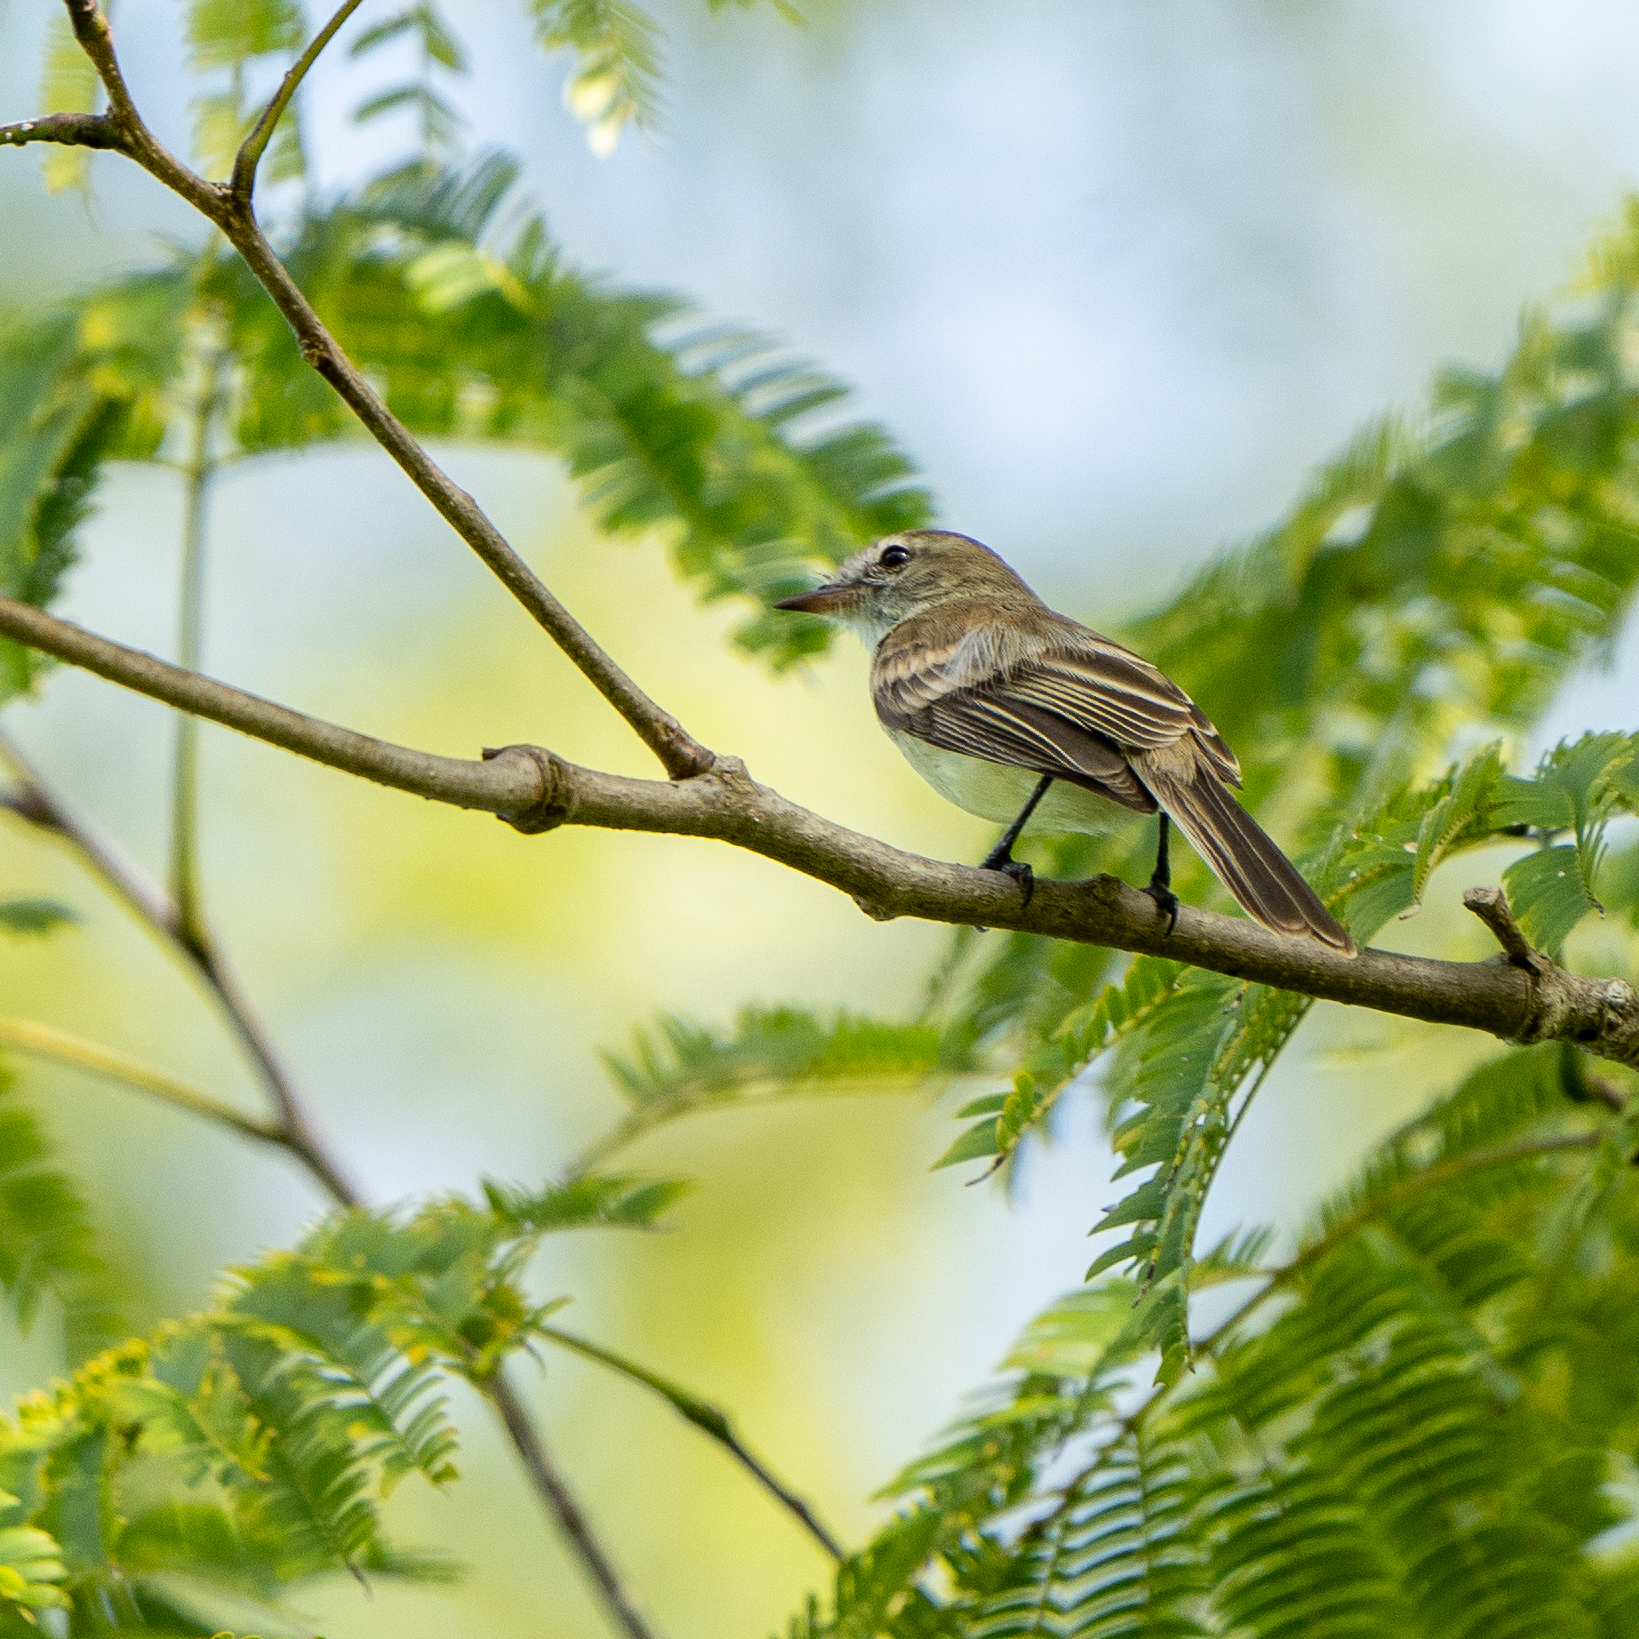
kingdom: Animalia
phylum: Chordata
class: Aves
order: Passeriformes
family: Tyrannidae
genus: Phaeomyias
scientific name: Phaeomyias murina
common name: Mouse-colored tyrannulet
